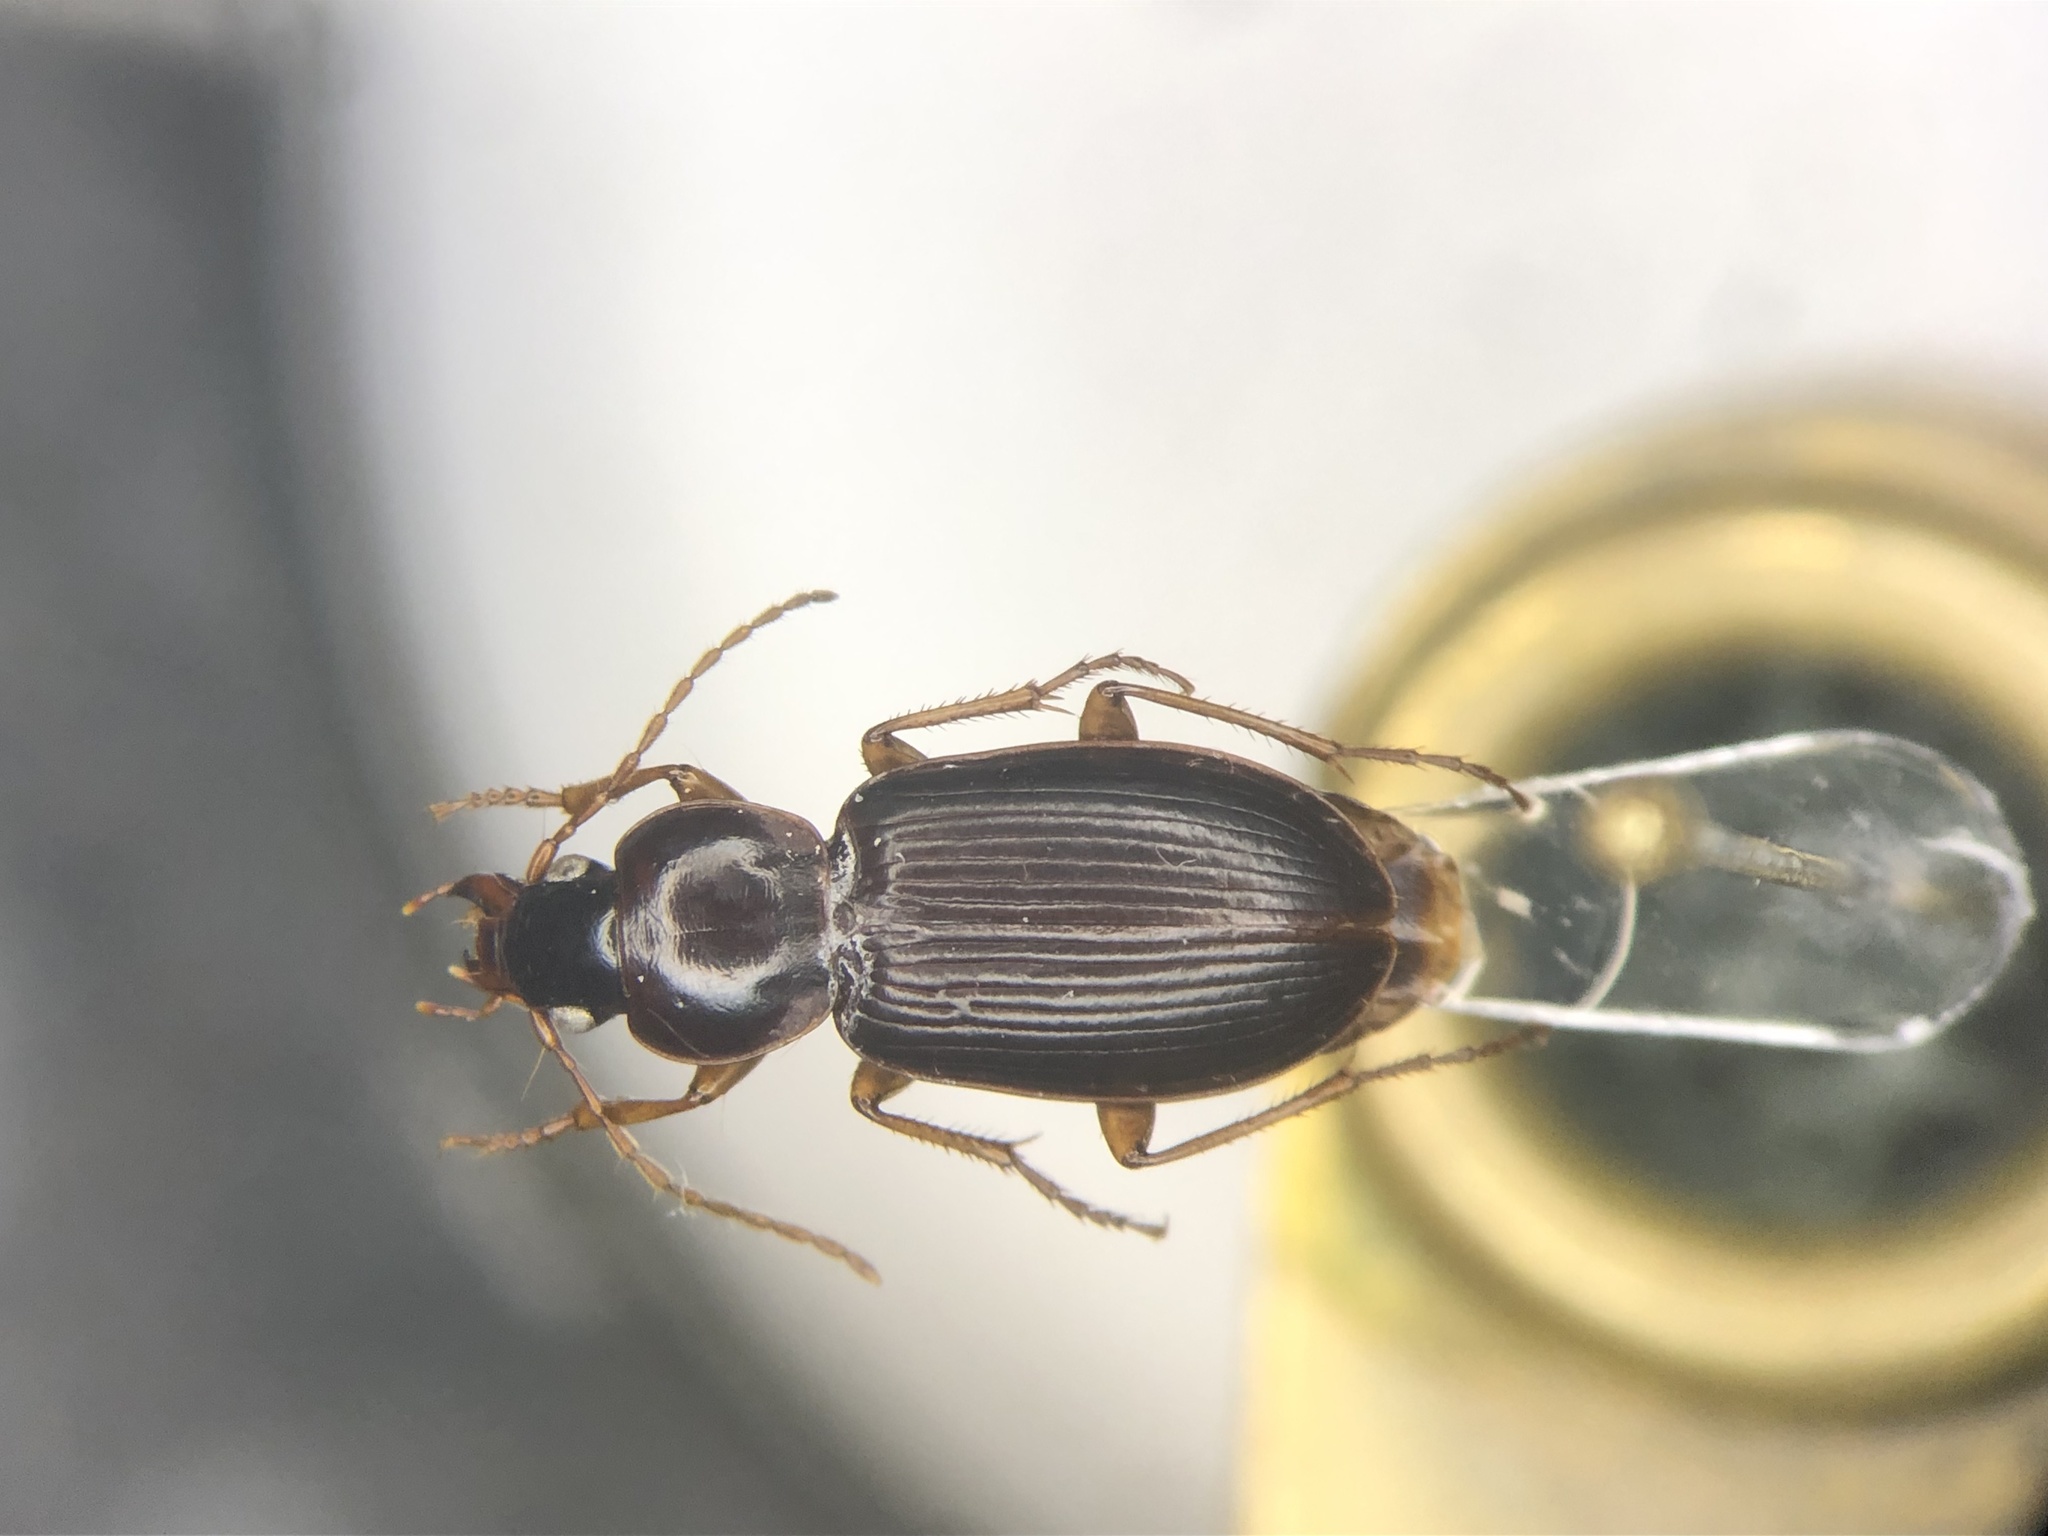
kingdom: Animalia
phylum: Arthropoda
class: Insecta
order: Coleoptera
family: Carabidae
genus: Synuchus
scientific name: Synuchus impunctatus
